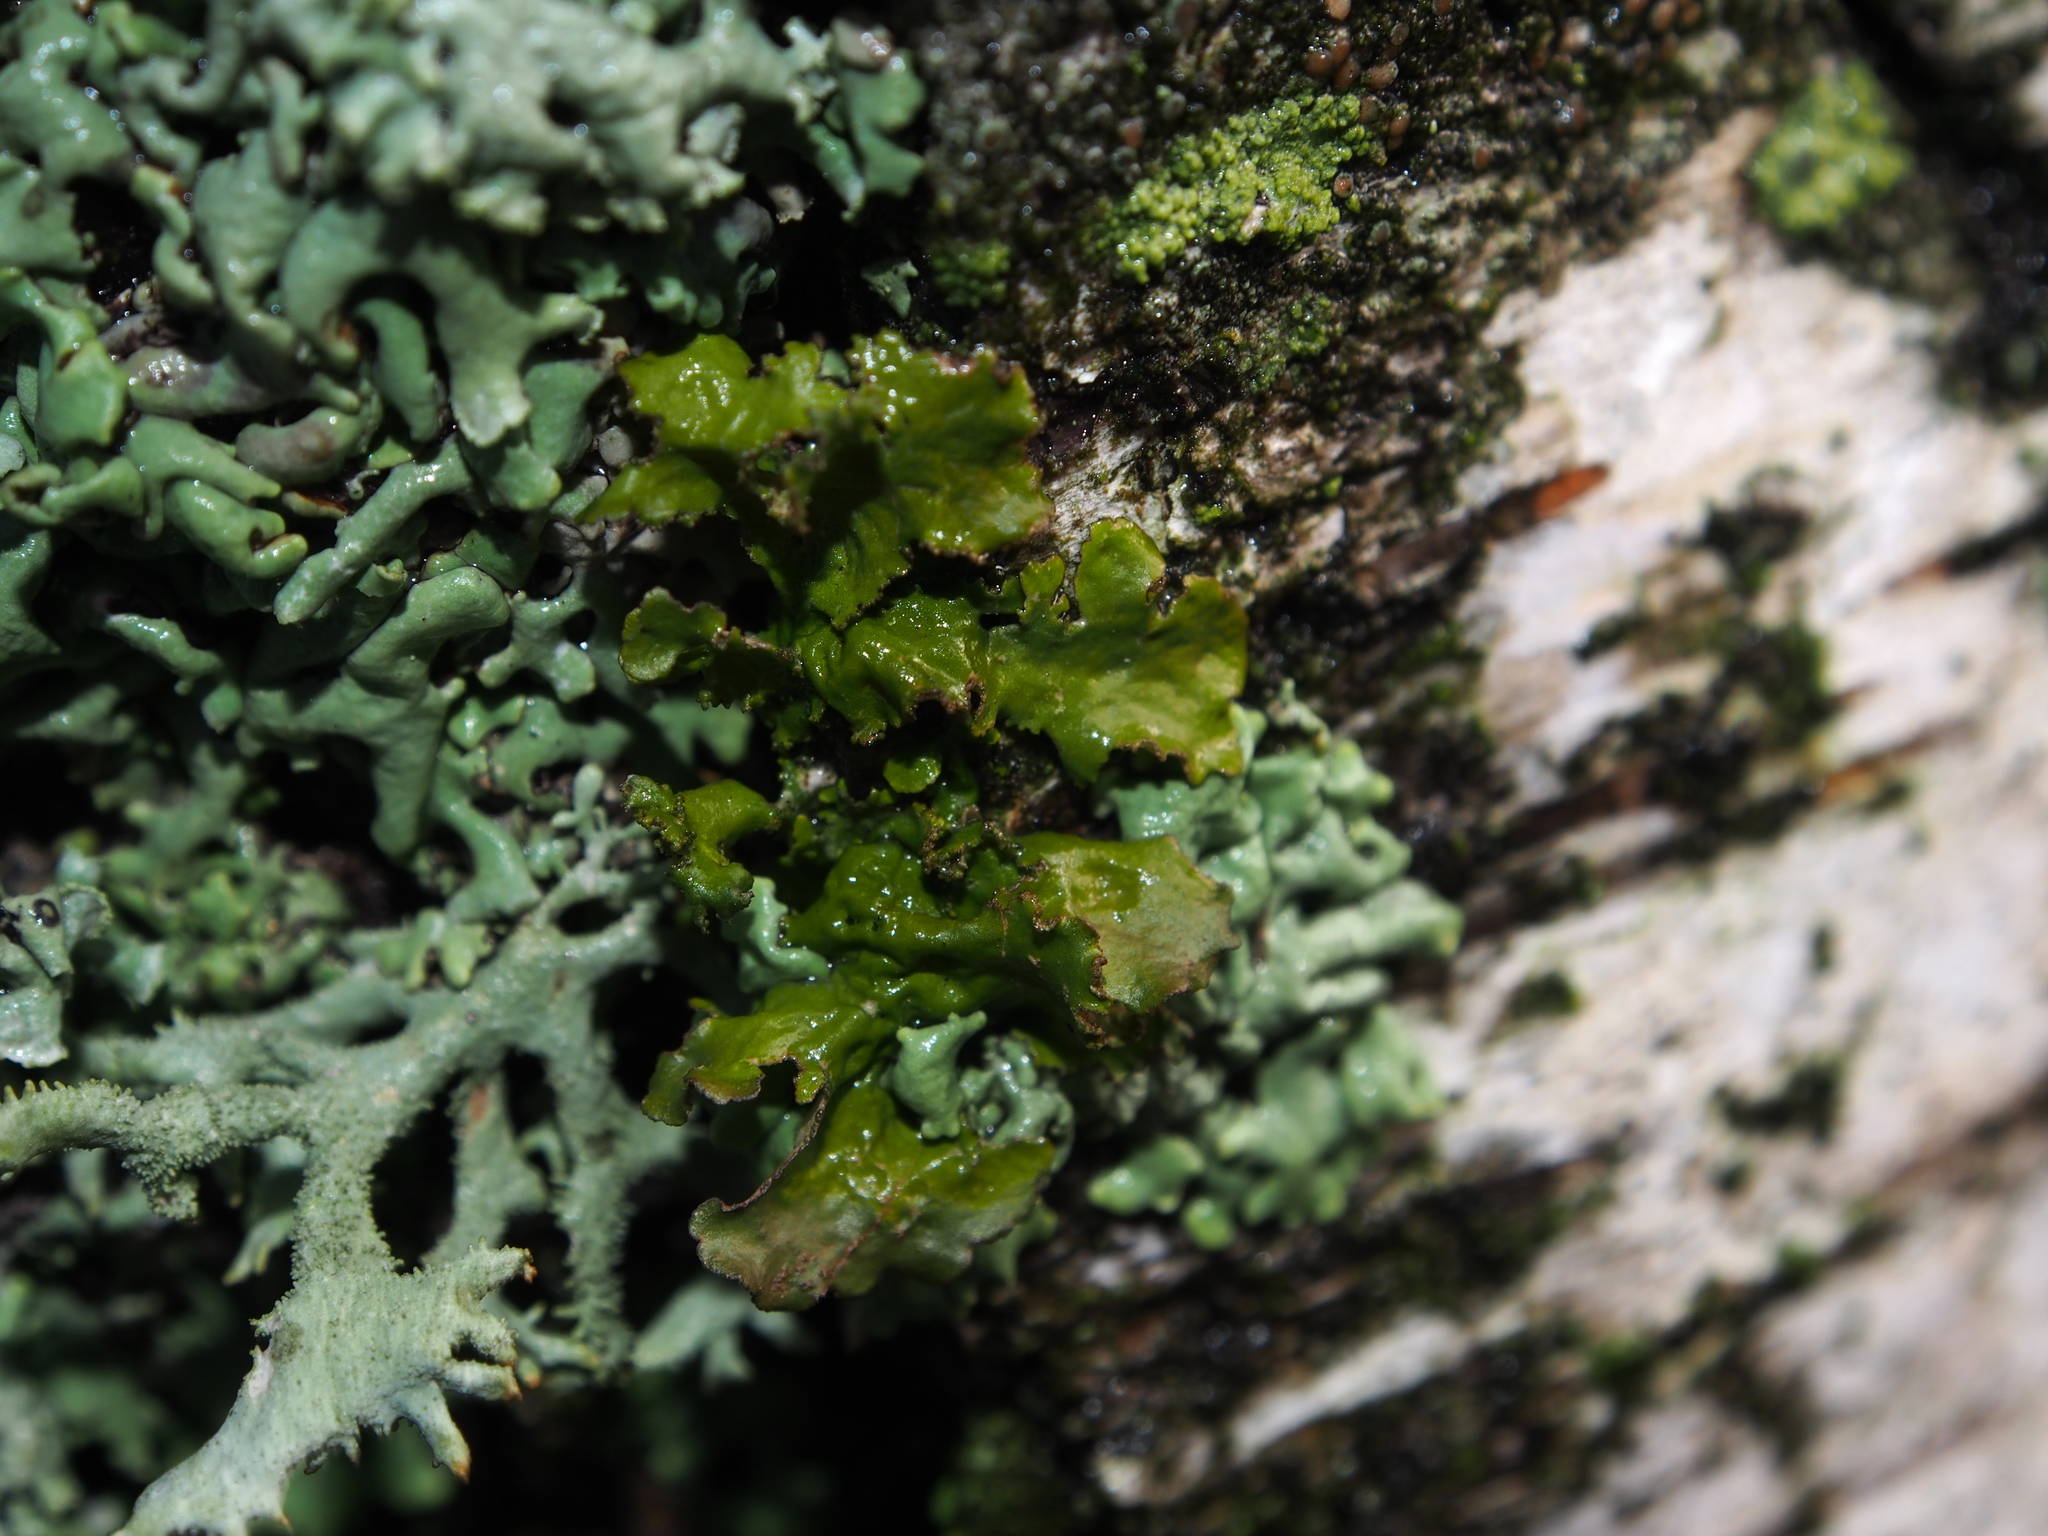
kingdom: Fungi
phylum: Ascomycota
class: Lecanoromycetes
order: Lecanorales
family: Parmeliaceae
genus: Nephromopsis
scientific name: Nephromopsis chlorophylla
